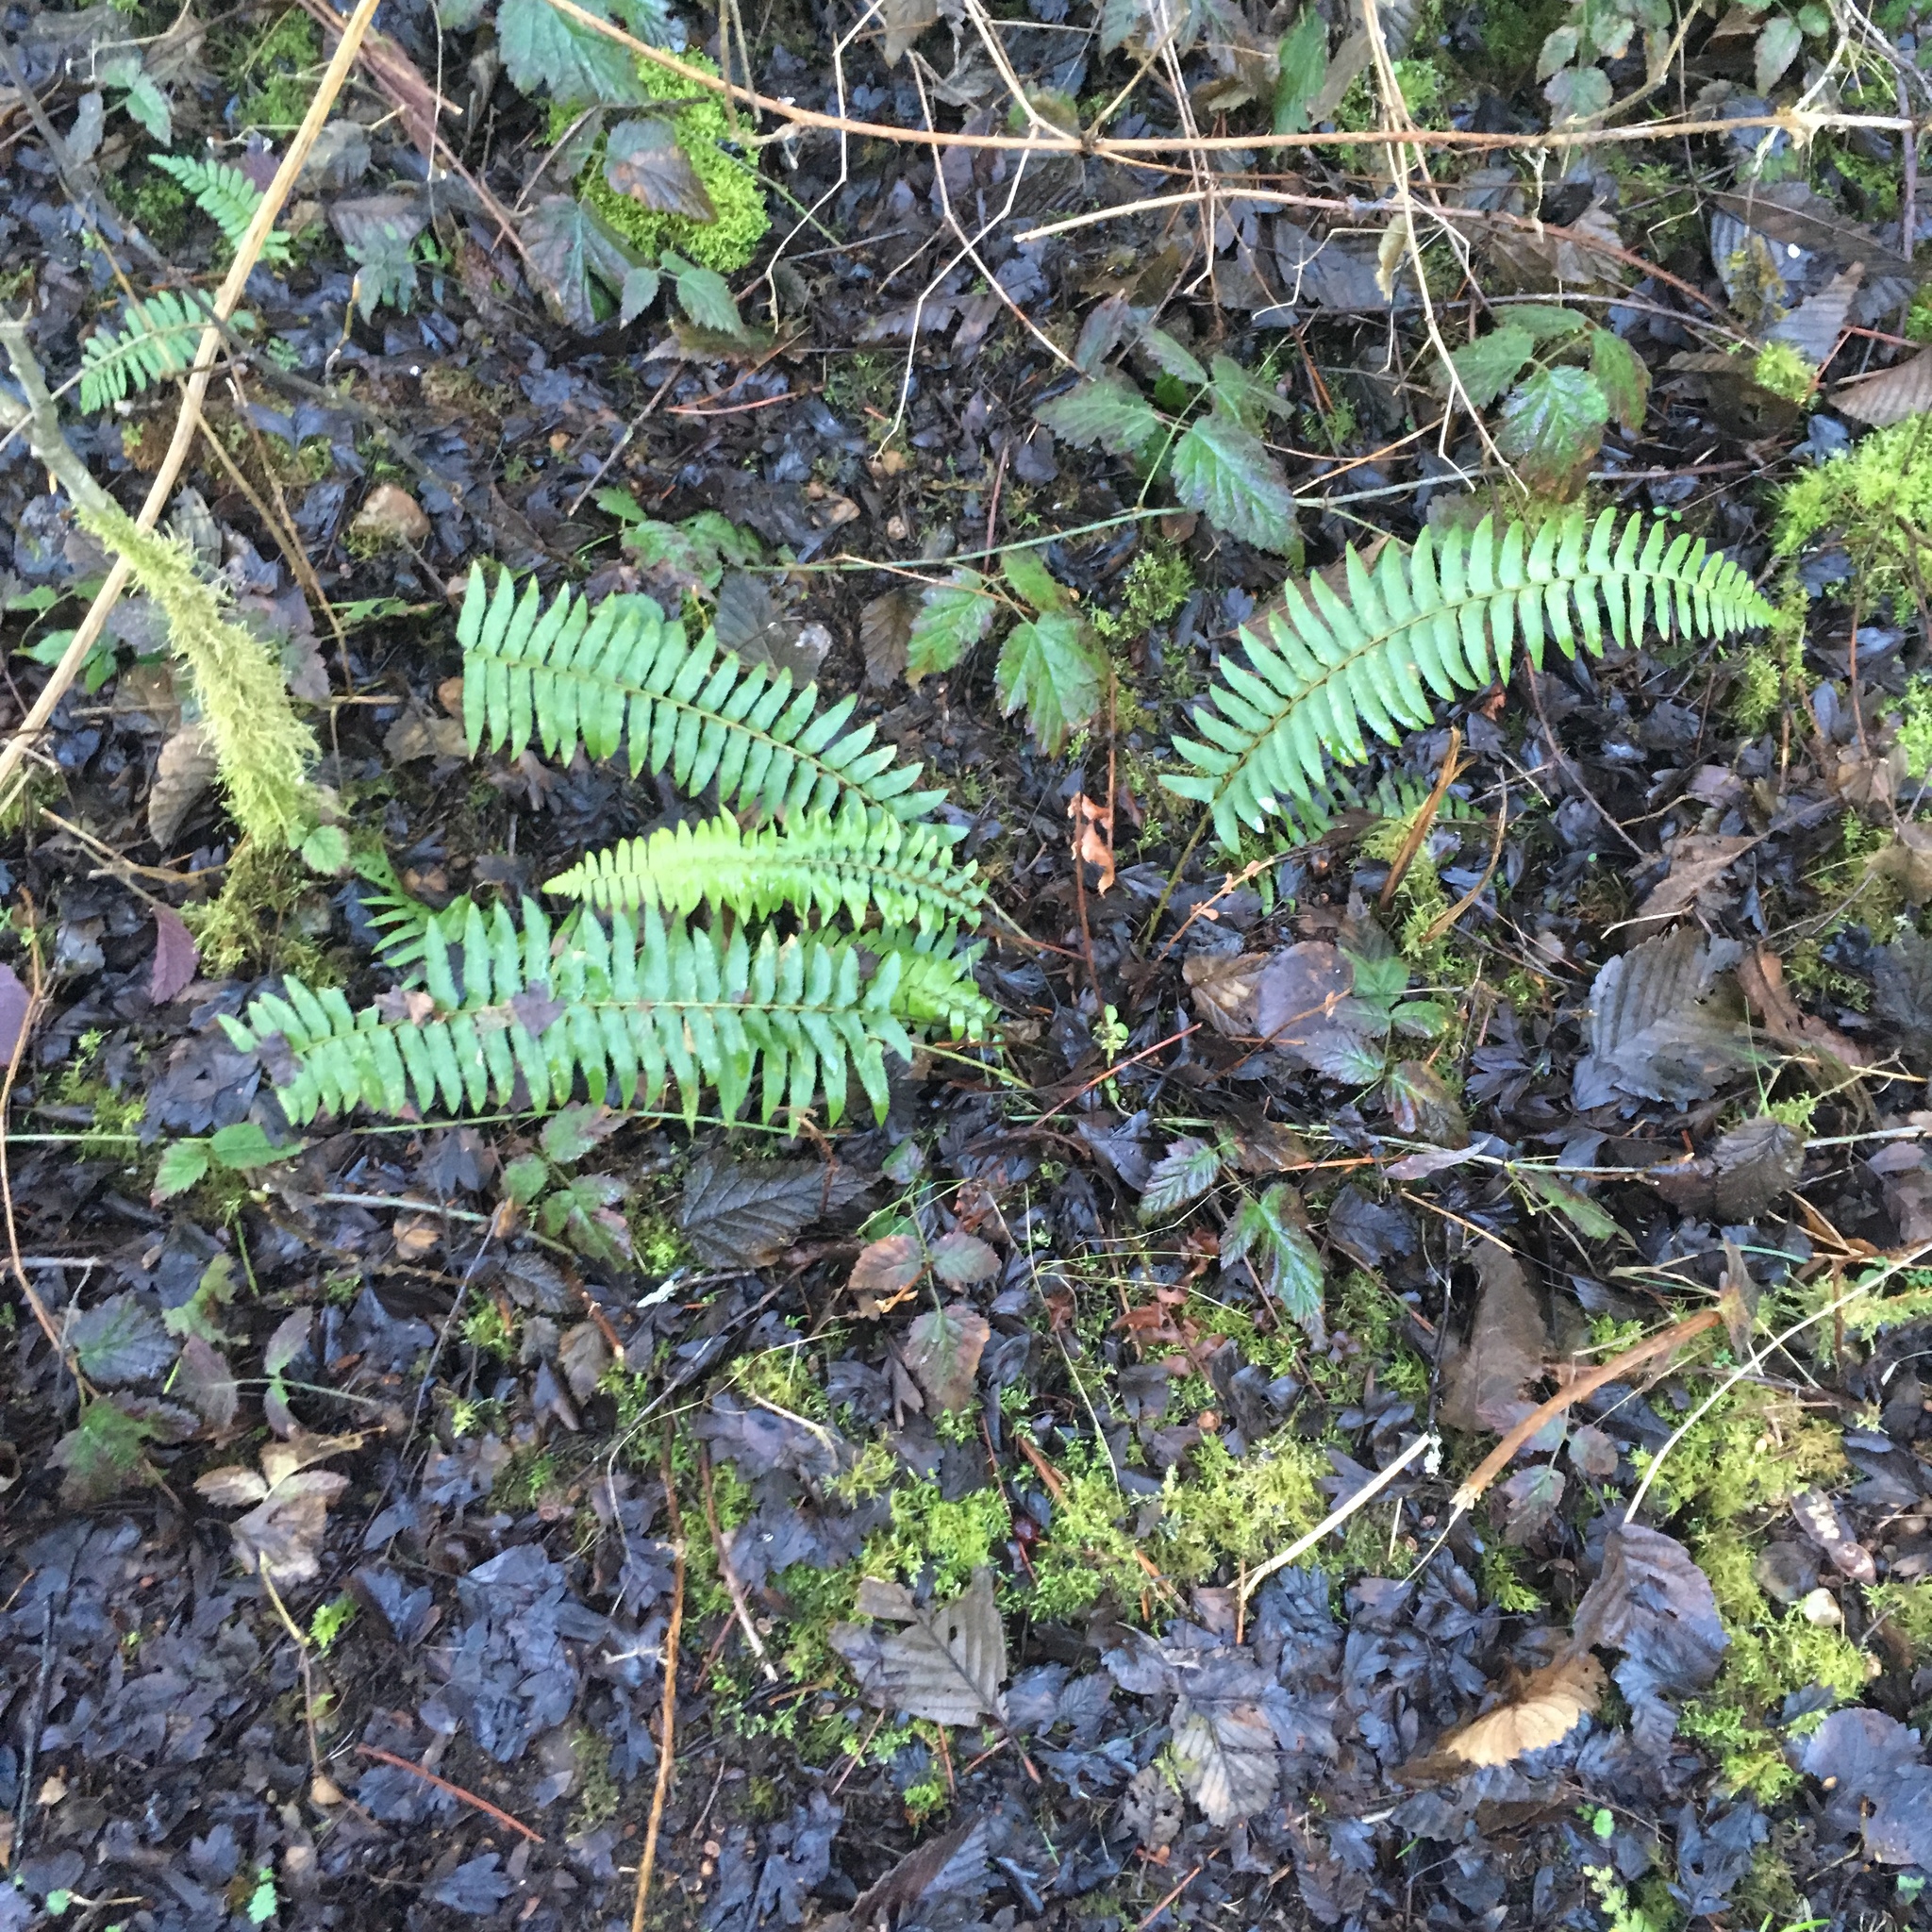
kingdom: Plantae
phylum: Tracheophyta
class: Polypodiopsida
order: Polypodiales
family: Dryopteridaceae
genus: Polystichum
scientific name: Polystichum munitum
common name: Western sword-fern
